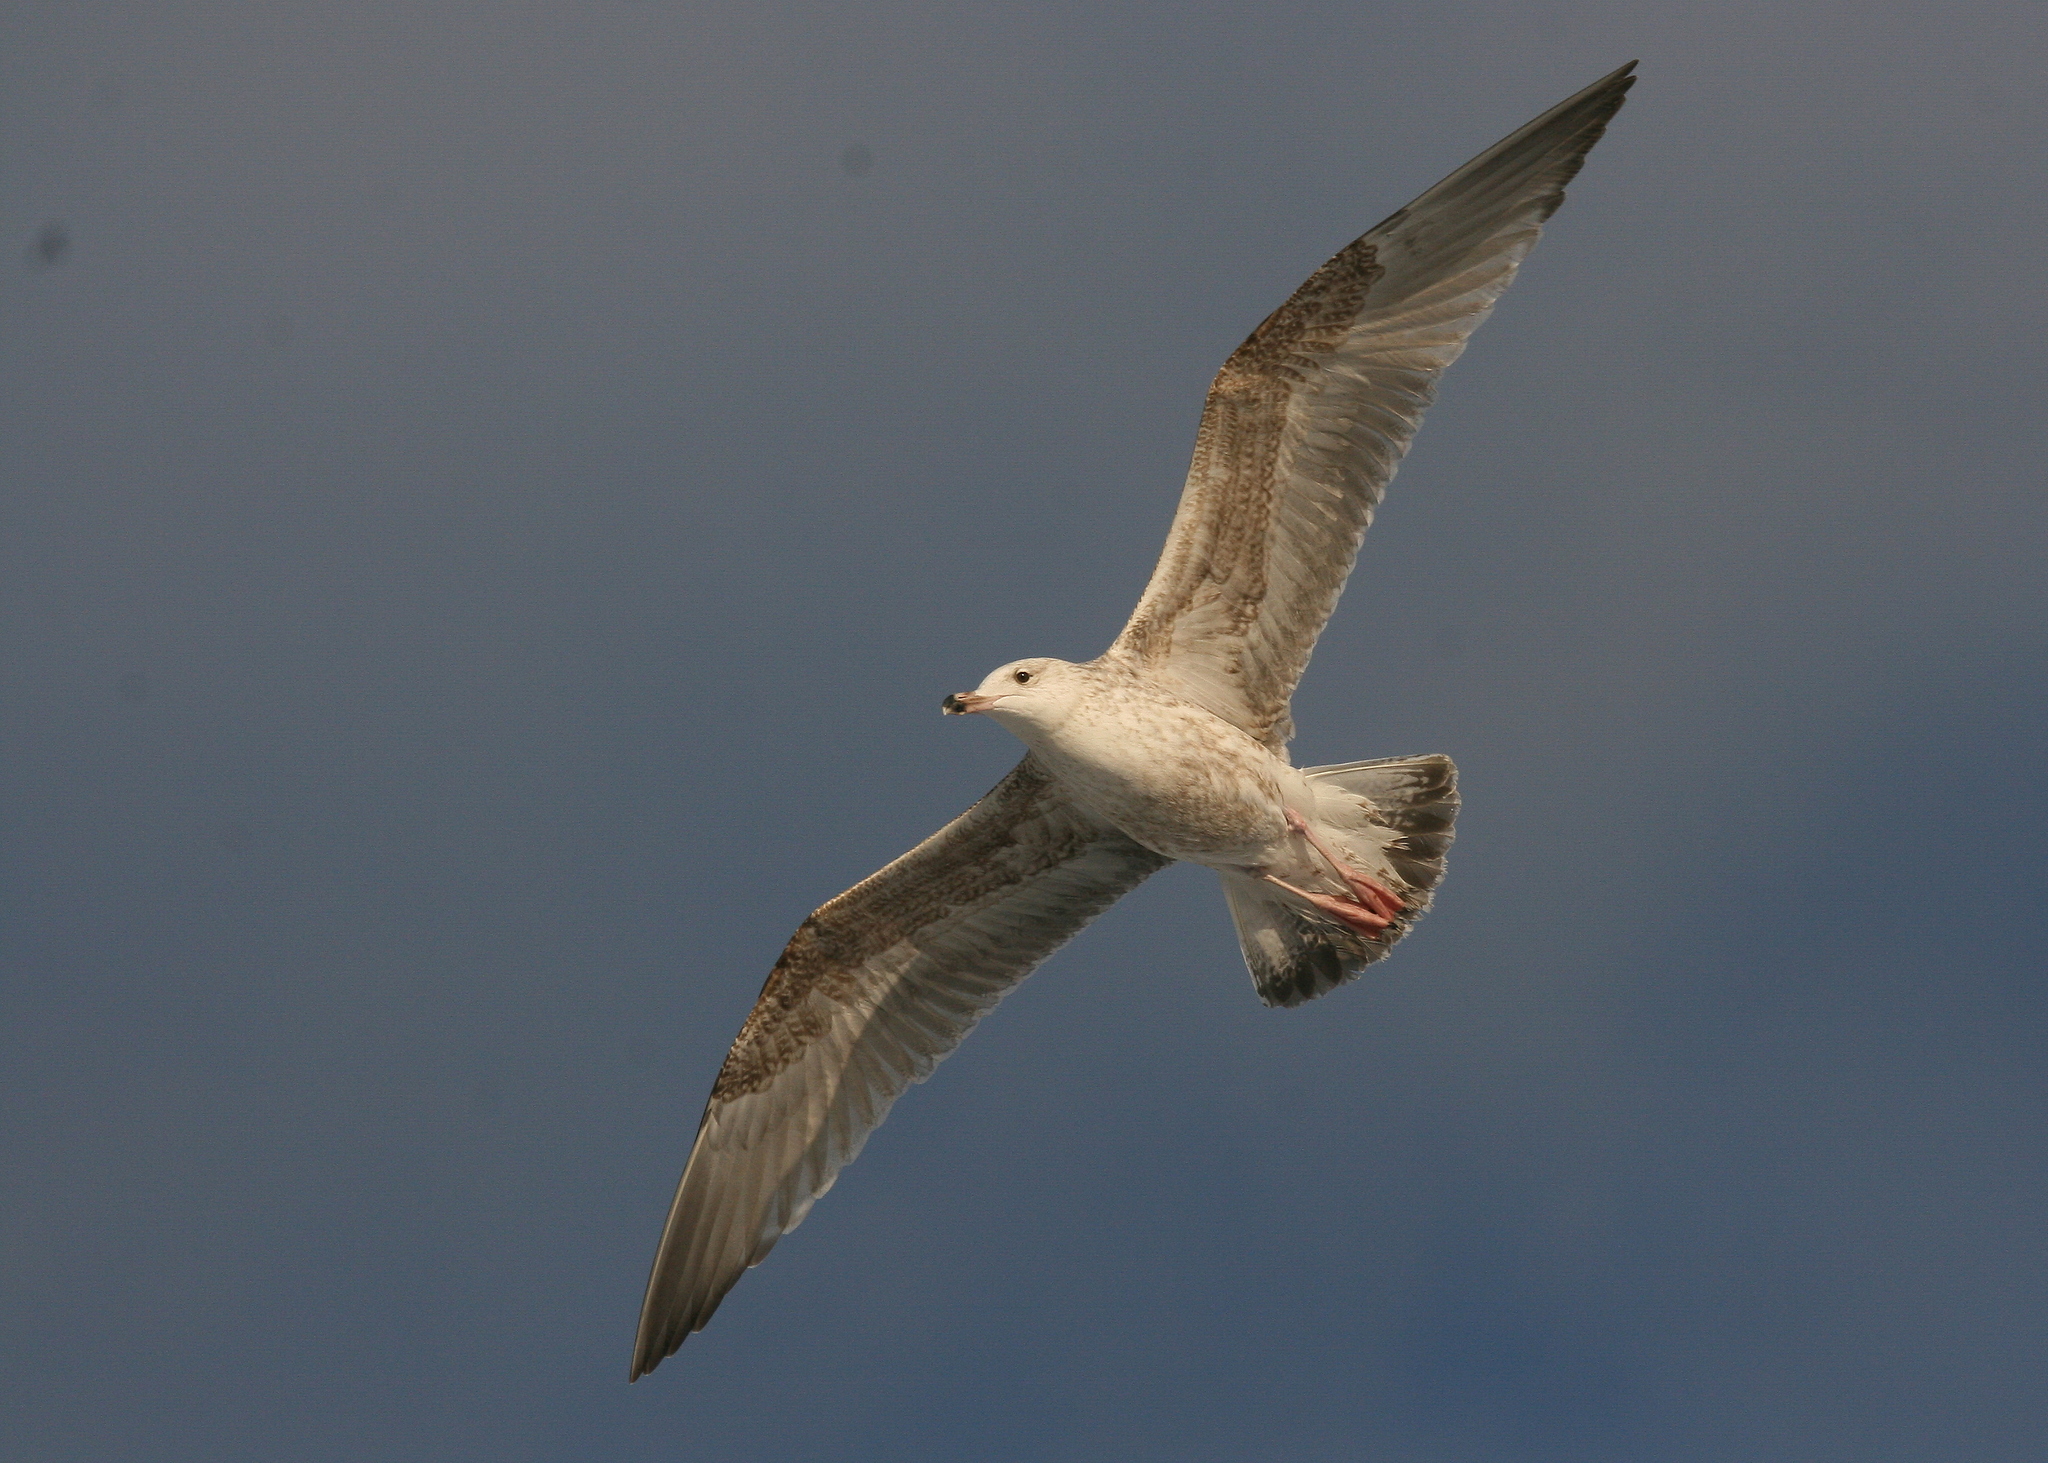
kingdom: Animalia
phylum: Chordata
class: Aves
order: Charadriiformes
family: Laridae
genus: Larus
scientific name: Larus marinus
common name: Great black-backed gull
